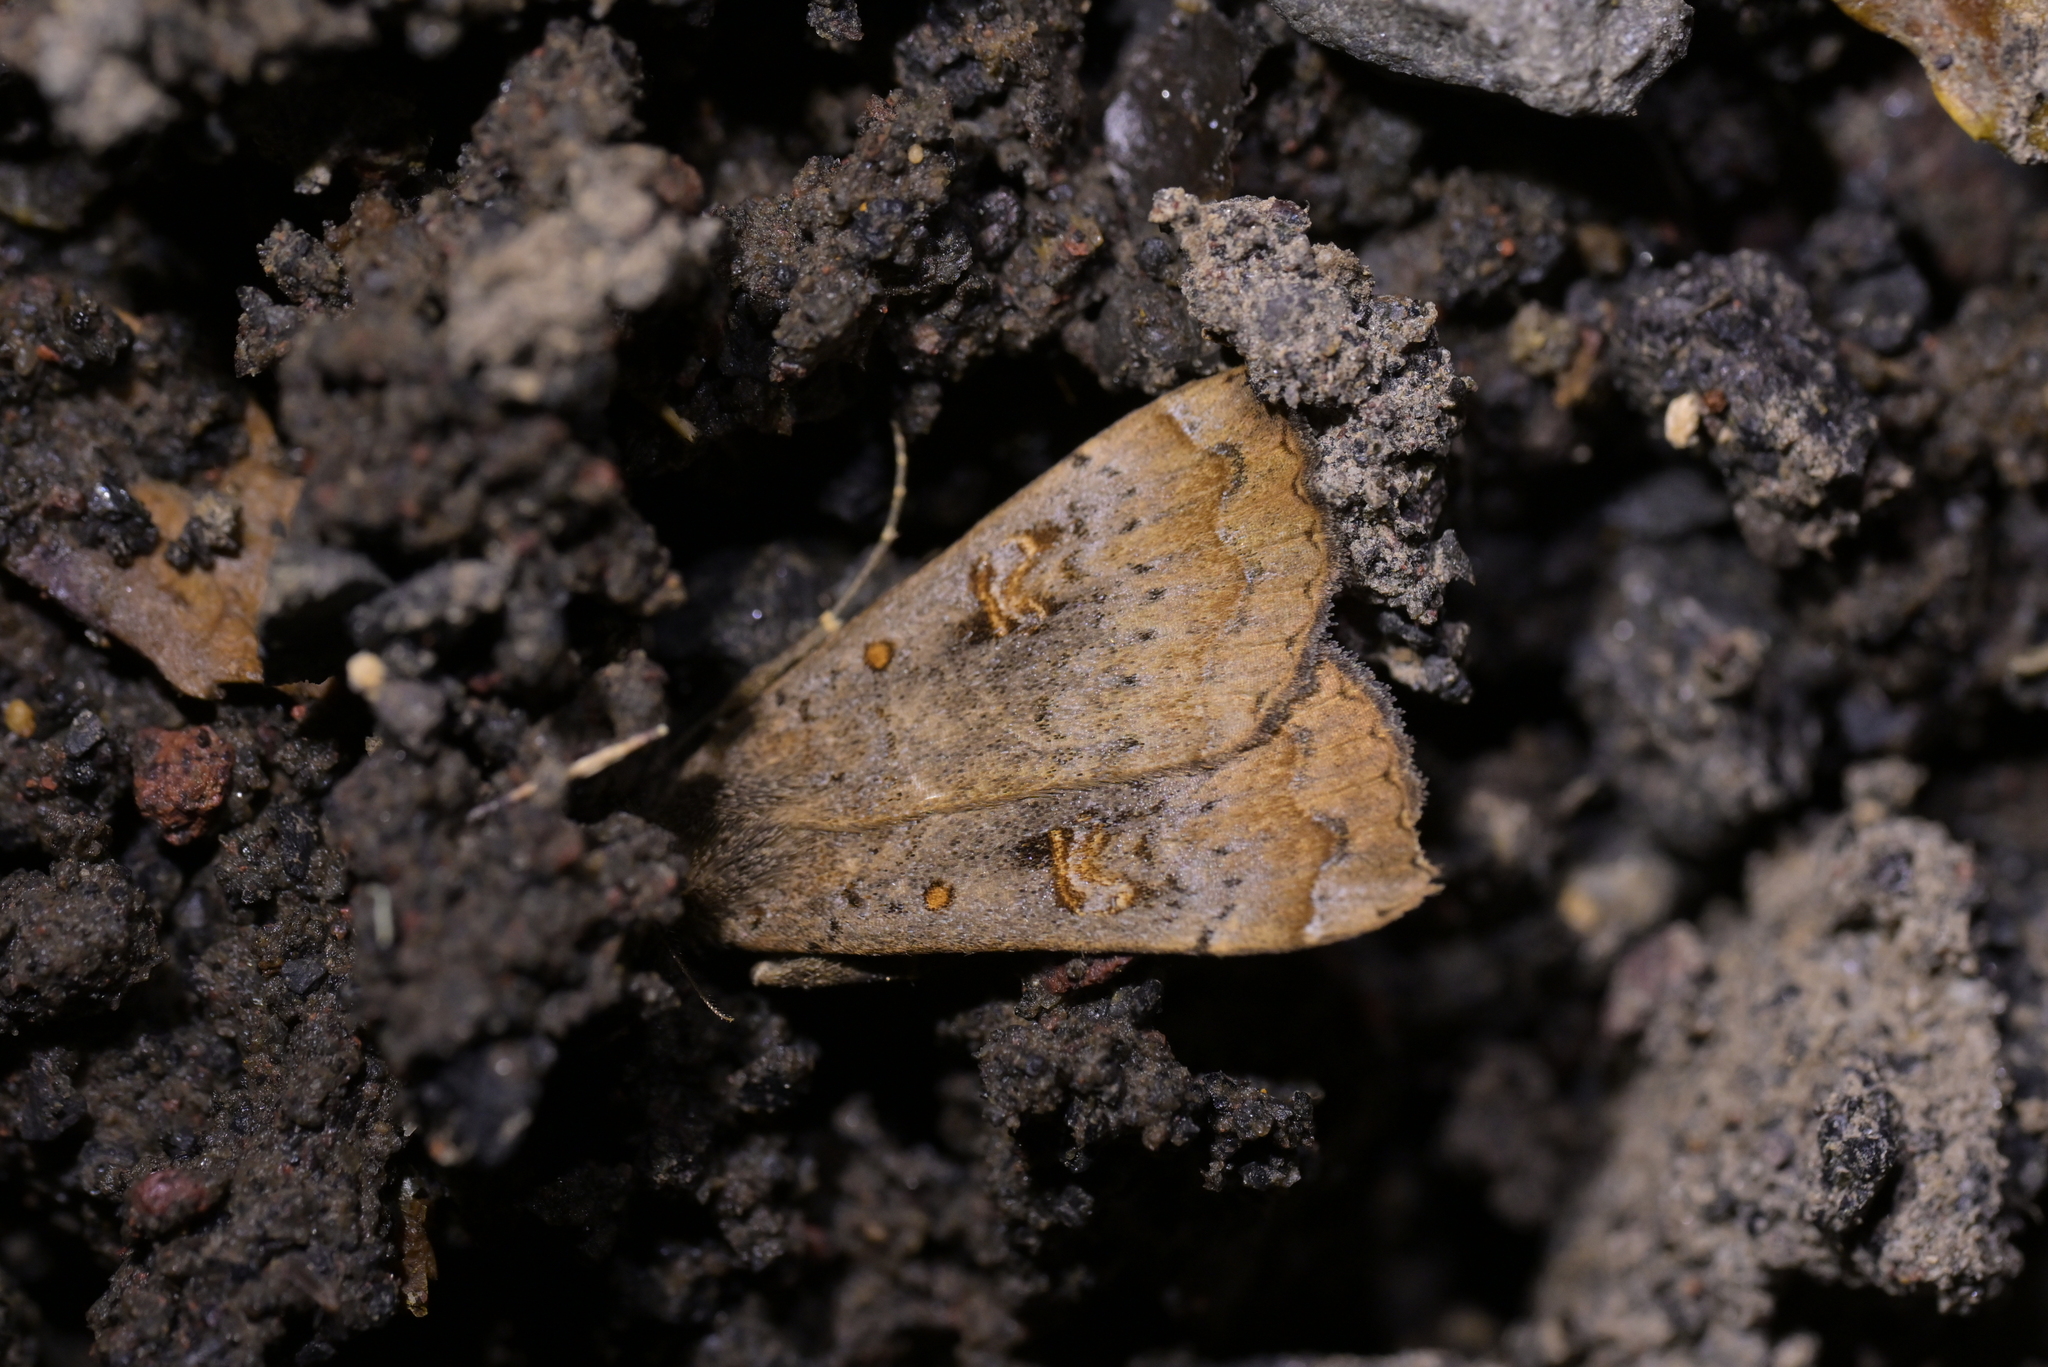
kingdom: Animalia
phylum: Arthropoda
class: Insecta
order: Lepidoptera
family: Erebidae
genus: Rhapsa
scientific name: Rhapsa scotosialis
